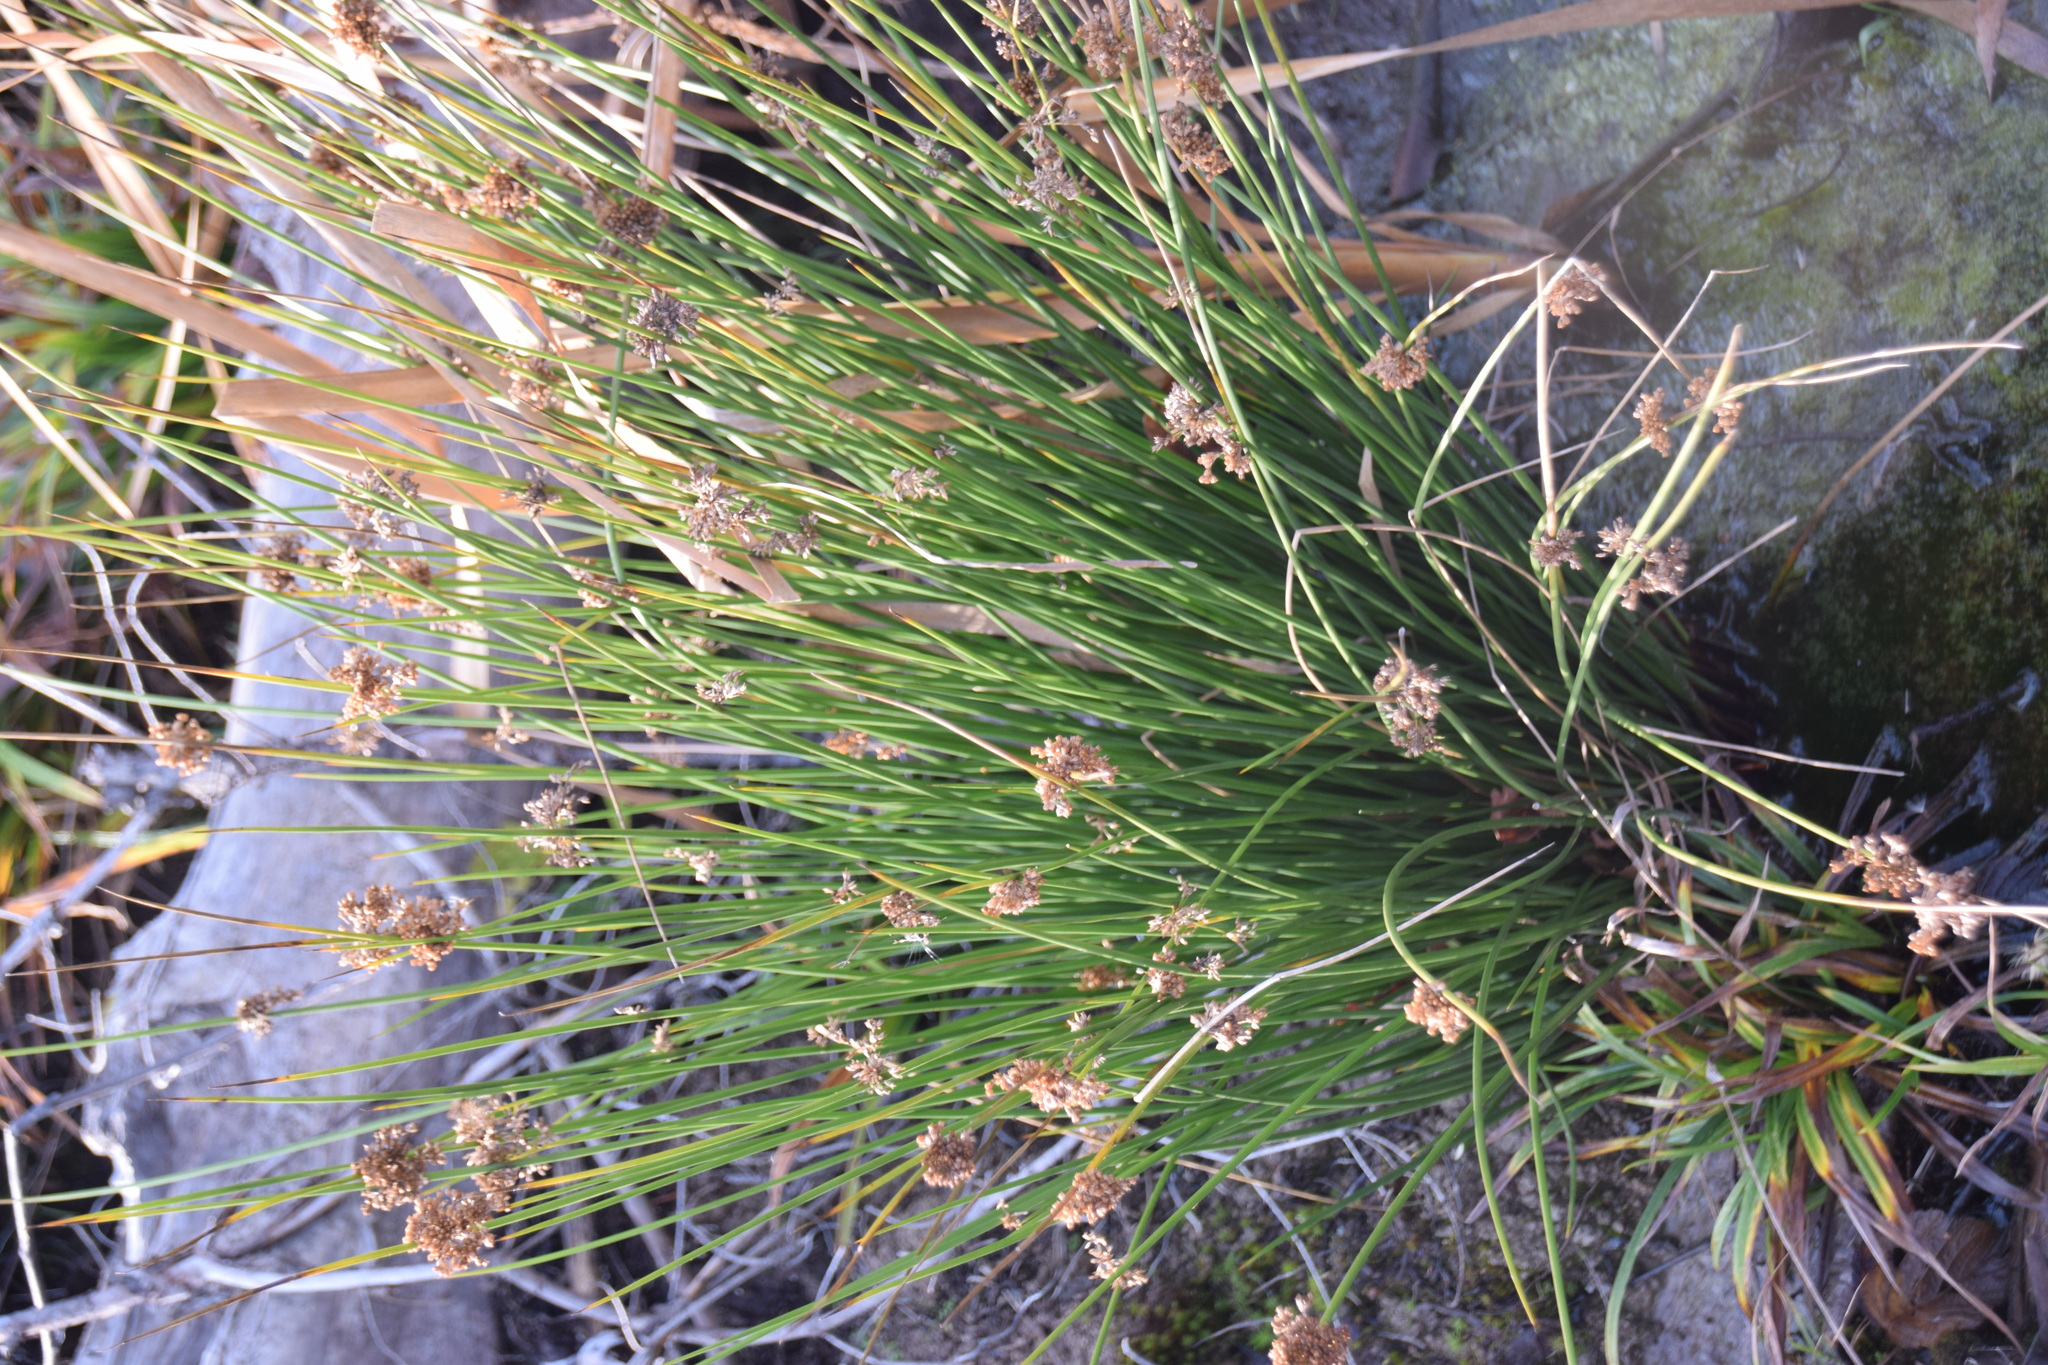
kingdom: Plantae
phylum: Tracheophyta
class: Liliopsida
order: Poales
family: Juncaceae
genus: Juncus
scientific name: Juncus effusus
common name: Soft rush
